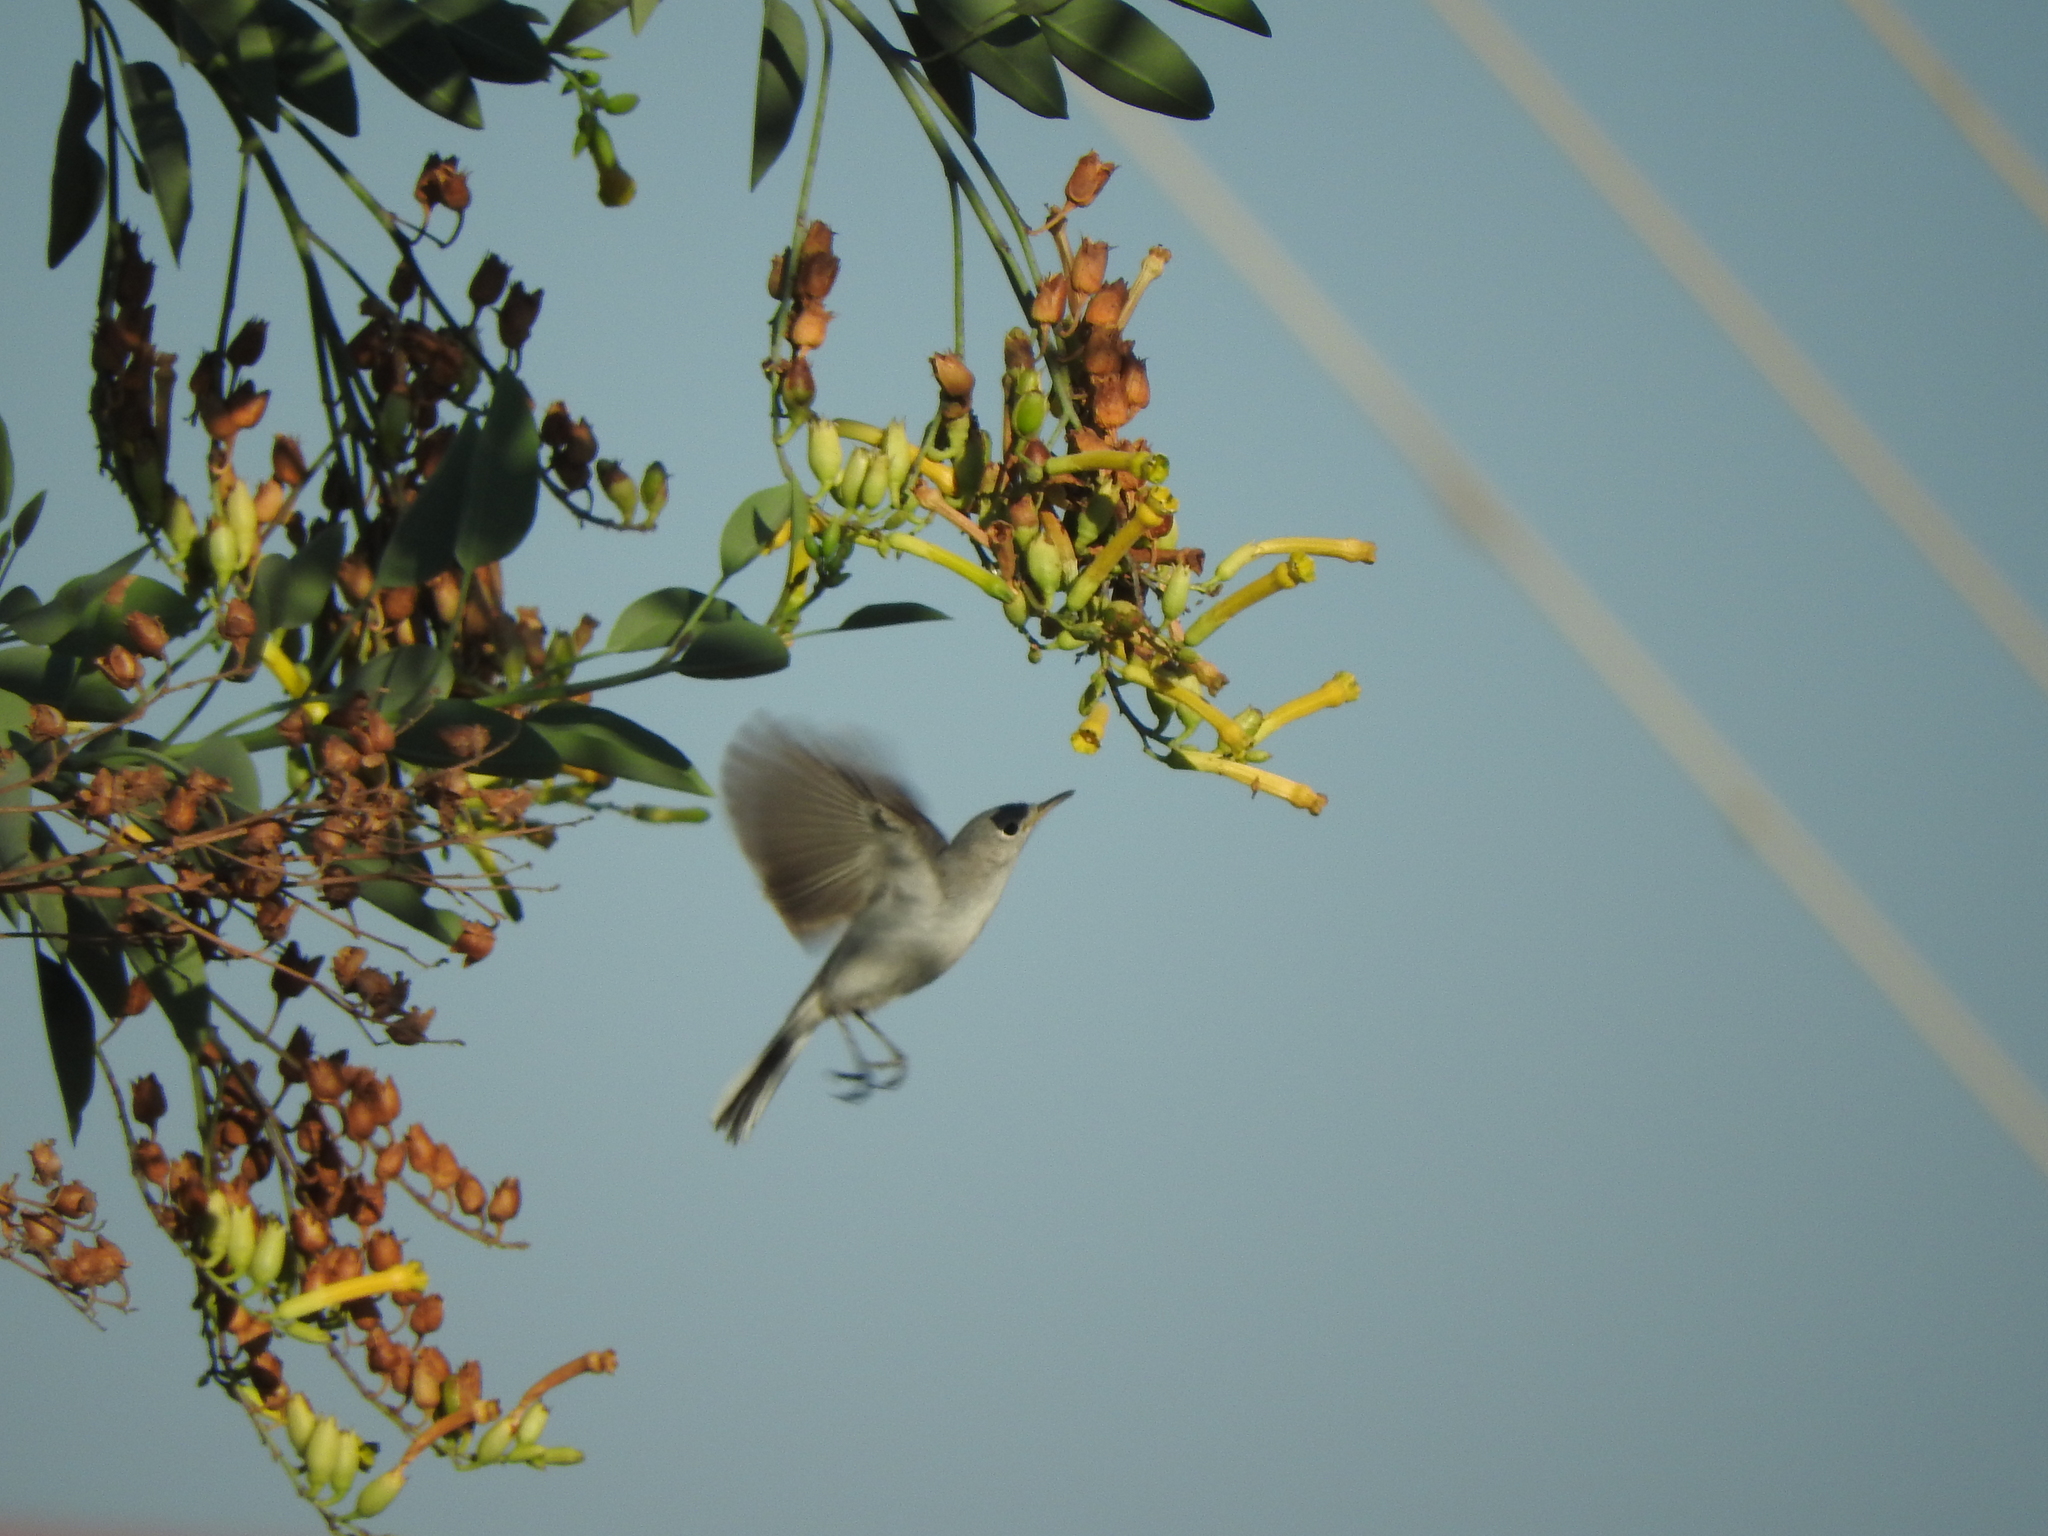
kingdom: Animalia
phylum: Chordata
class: Aves
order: Passeriformes
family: Polioptilidae
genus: Polioptila
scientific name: Polioptila caerulea
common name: Blue-gray gnatcatcher
